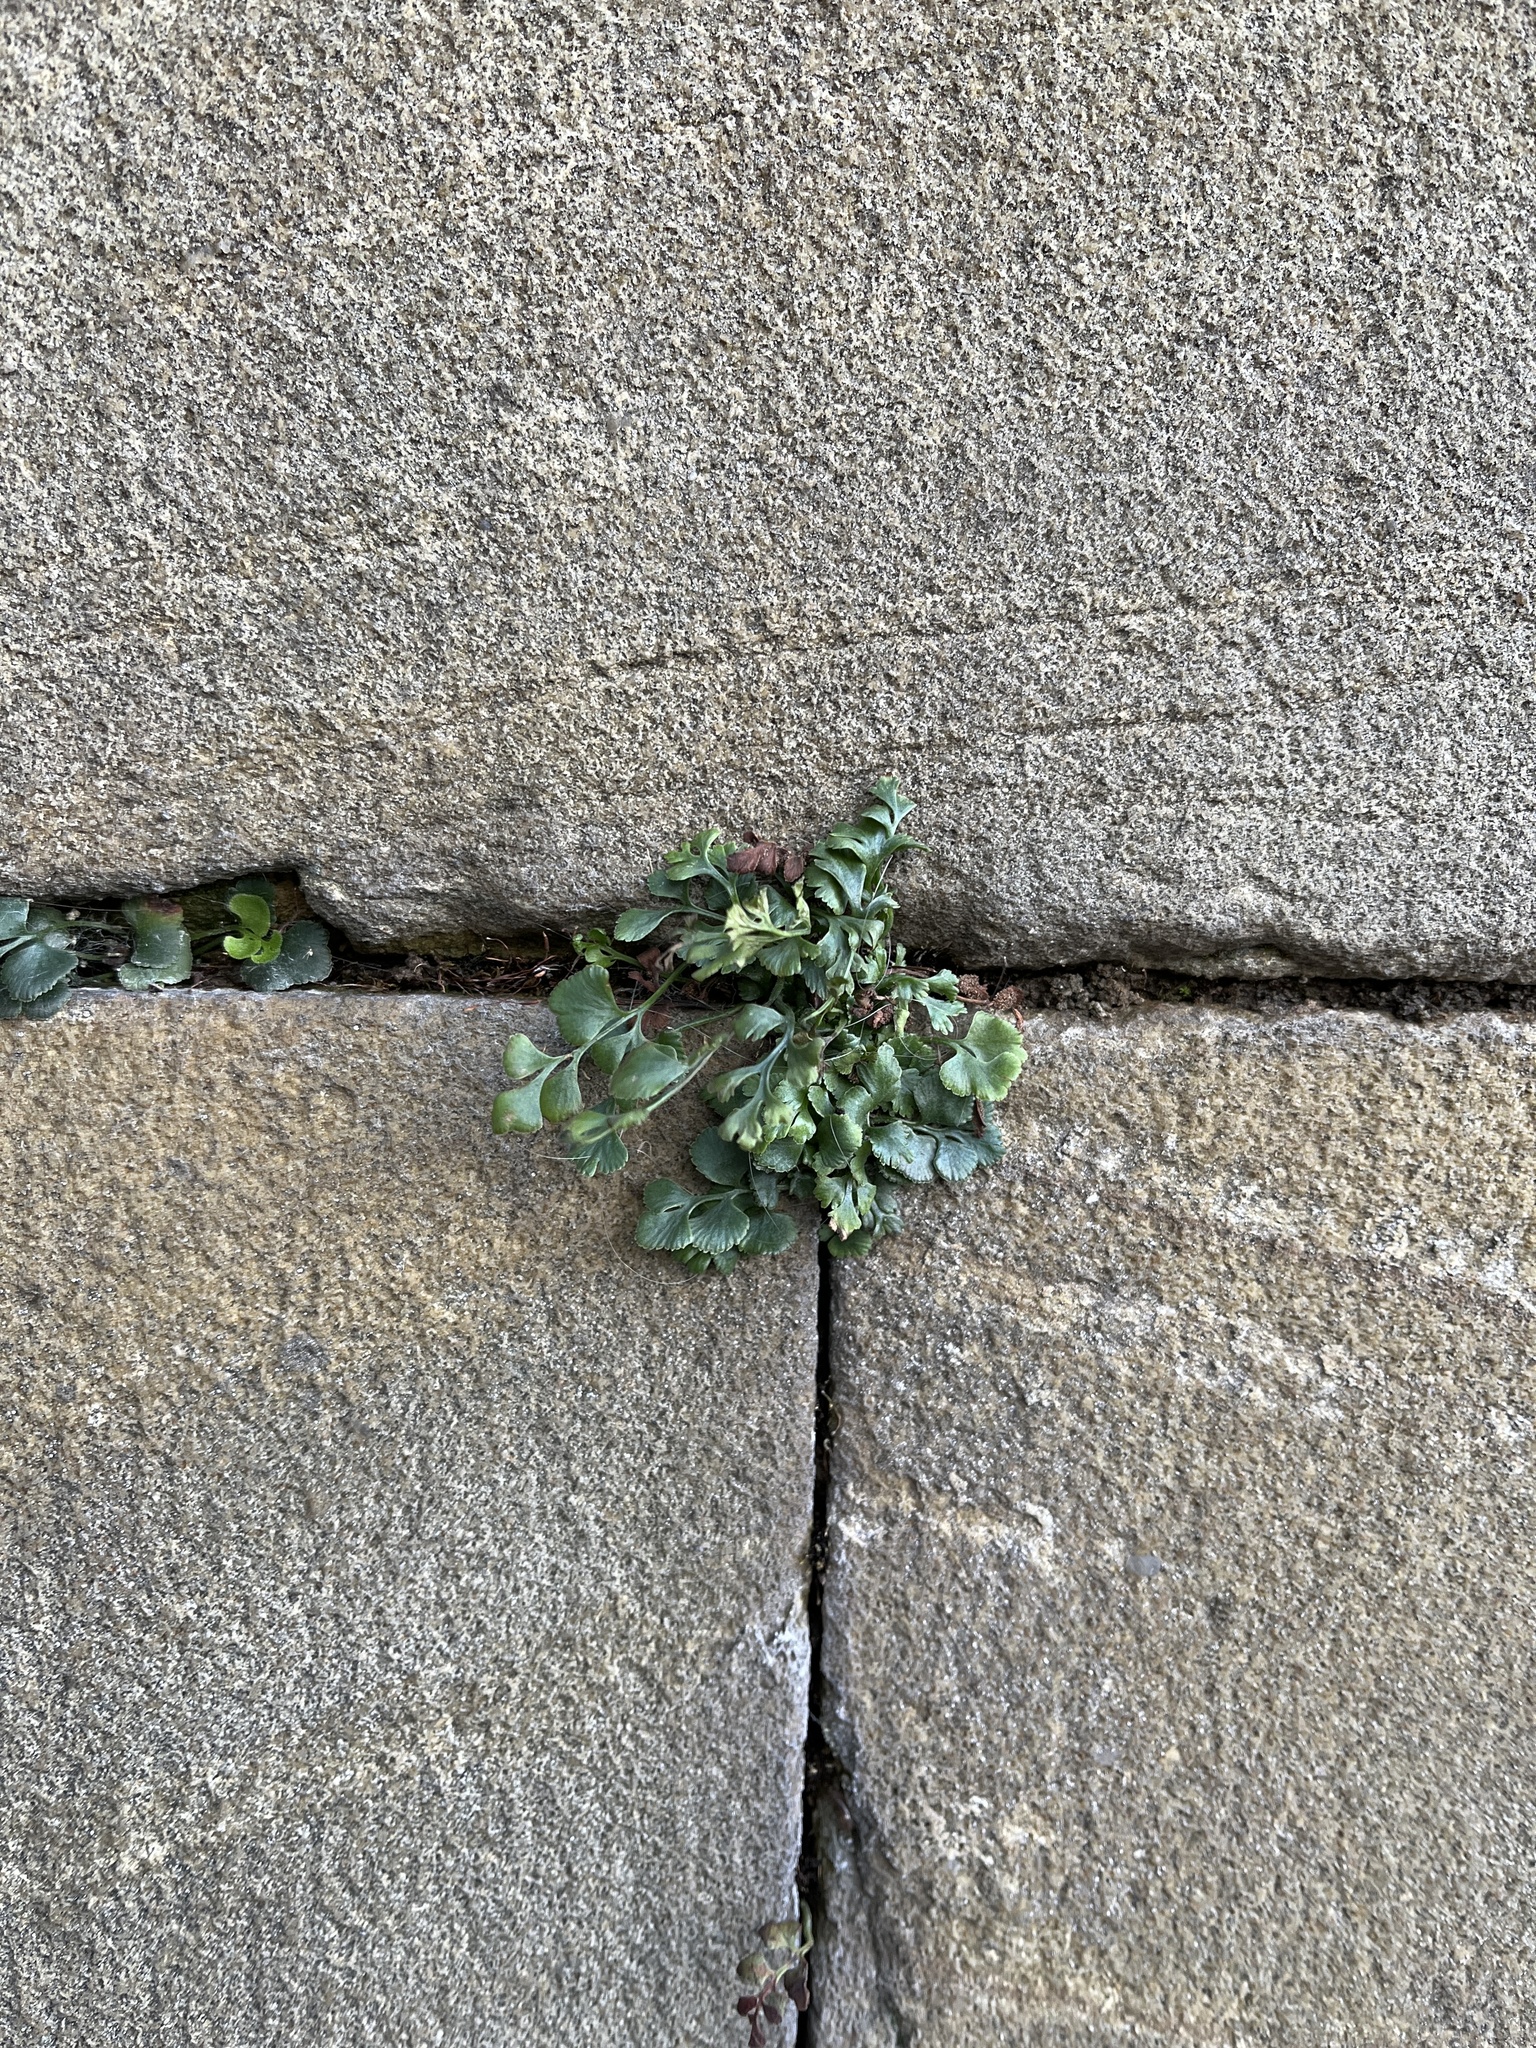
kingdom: Plantae
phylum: Tracheophyta
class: Polypodiopsida
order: Polypodiales
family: Aspleniaceae
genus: Asplenium
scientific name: Asplenium ruta-muraria
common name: Wall-rue
